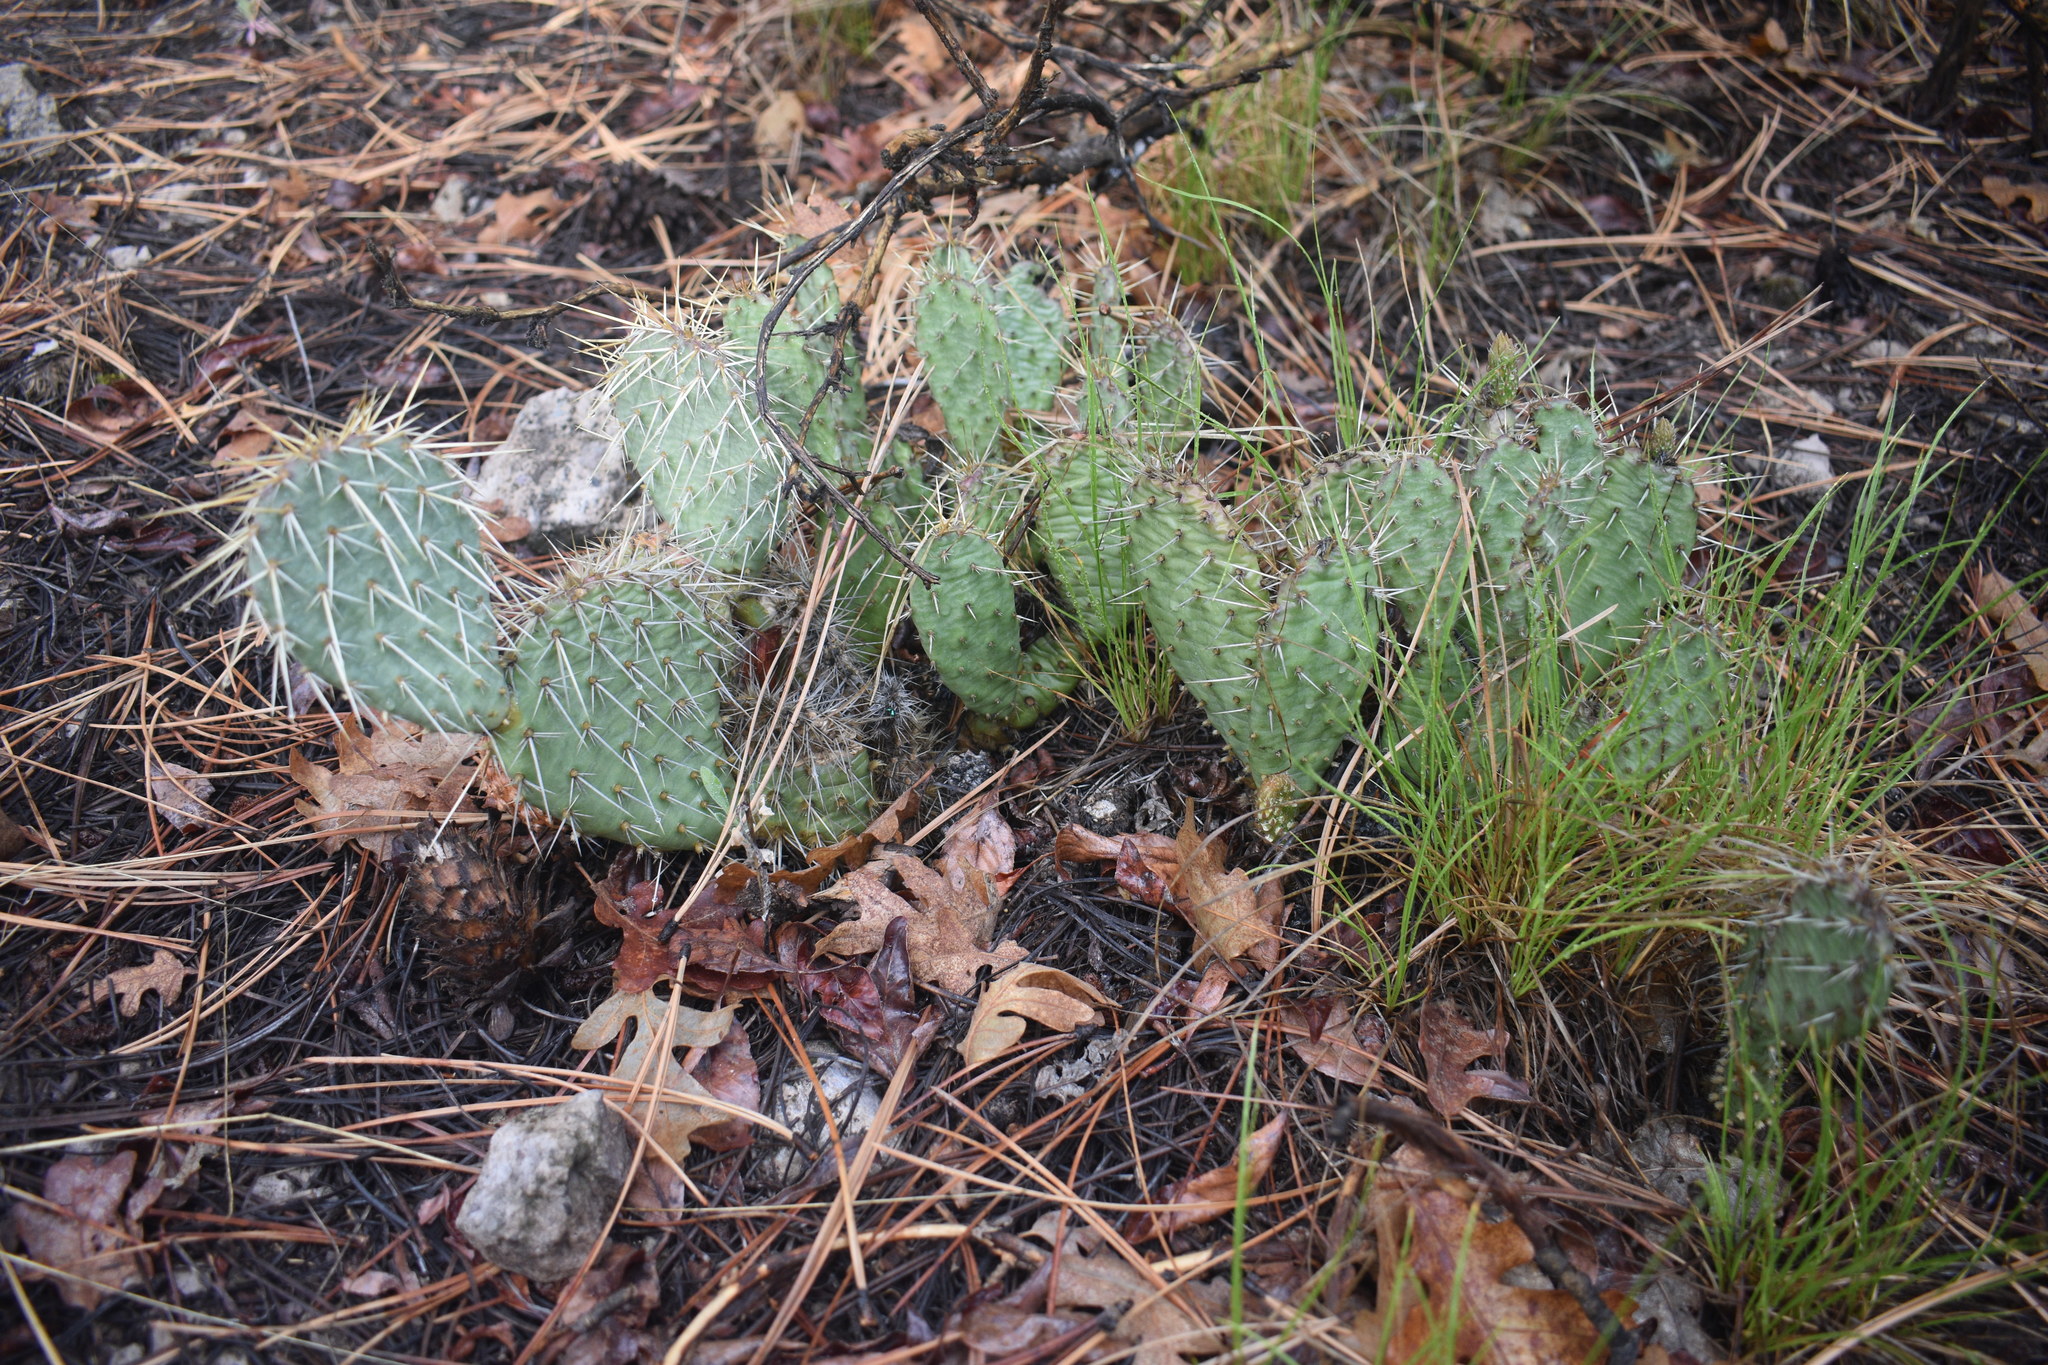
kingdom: Plantae
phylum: Tracheophyta
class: Magnoliopsida
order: Caryophyllales
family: Cactaceae
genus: Opuntia
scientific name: Opuntia polyacantha
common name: Plains prickly-pear
